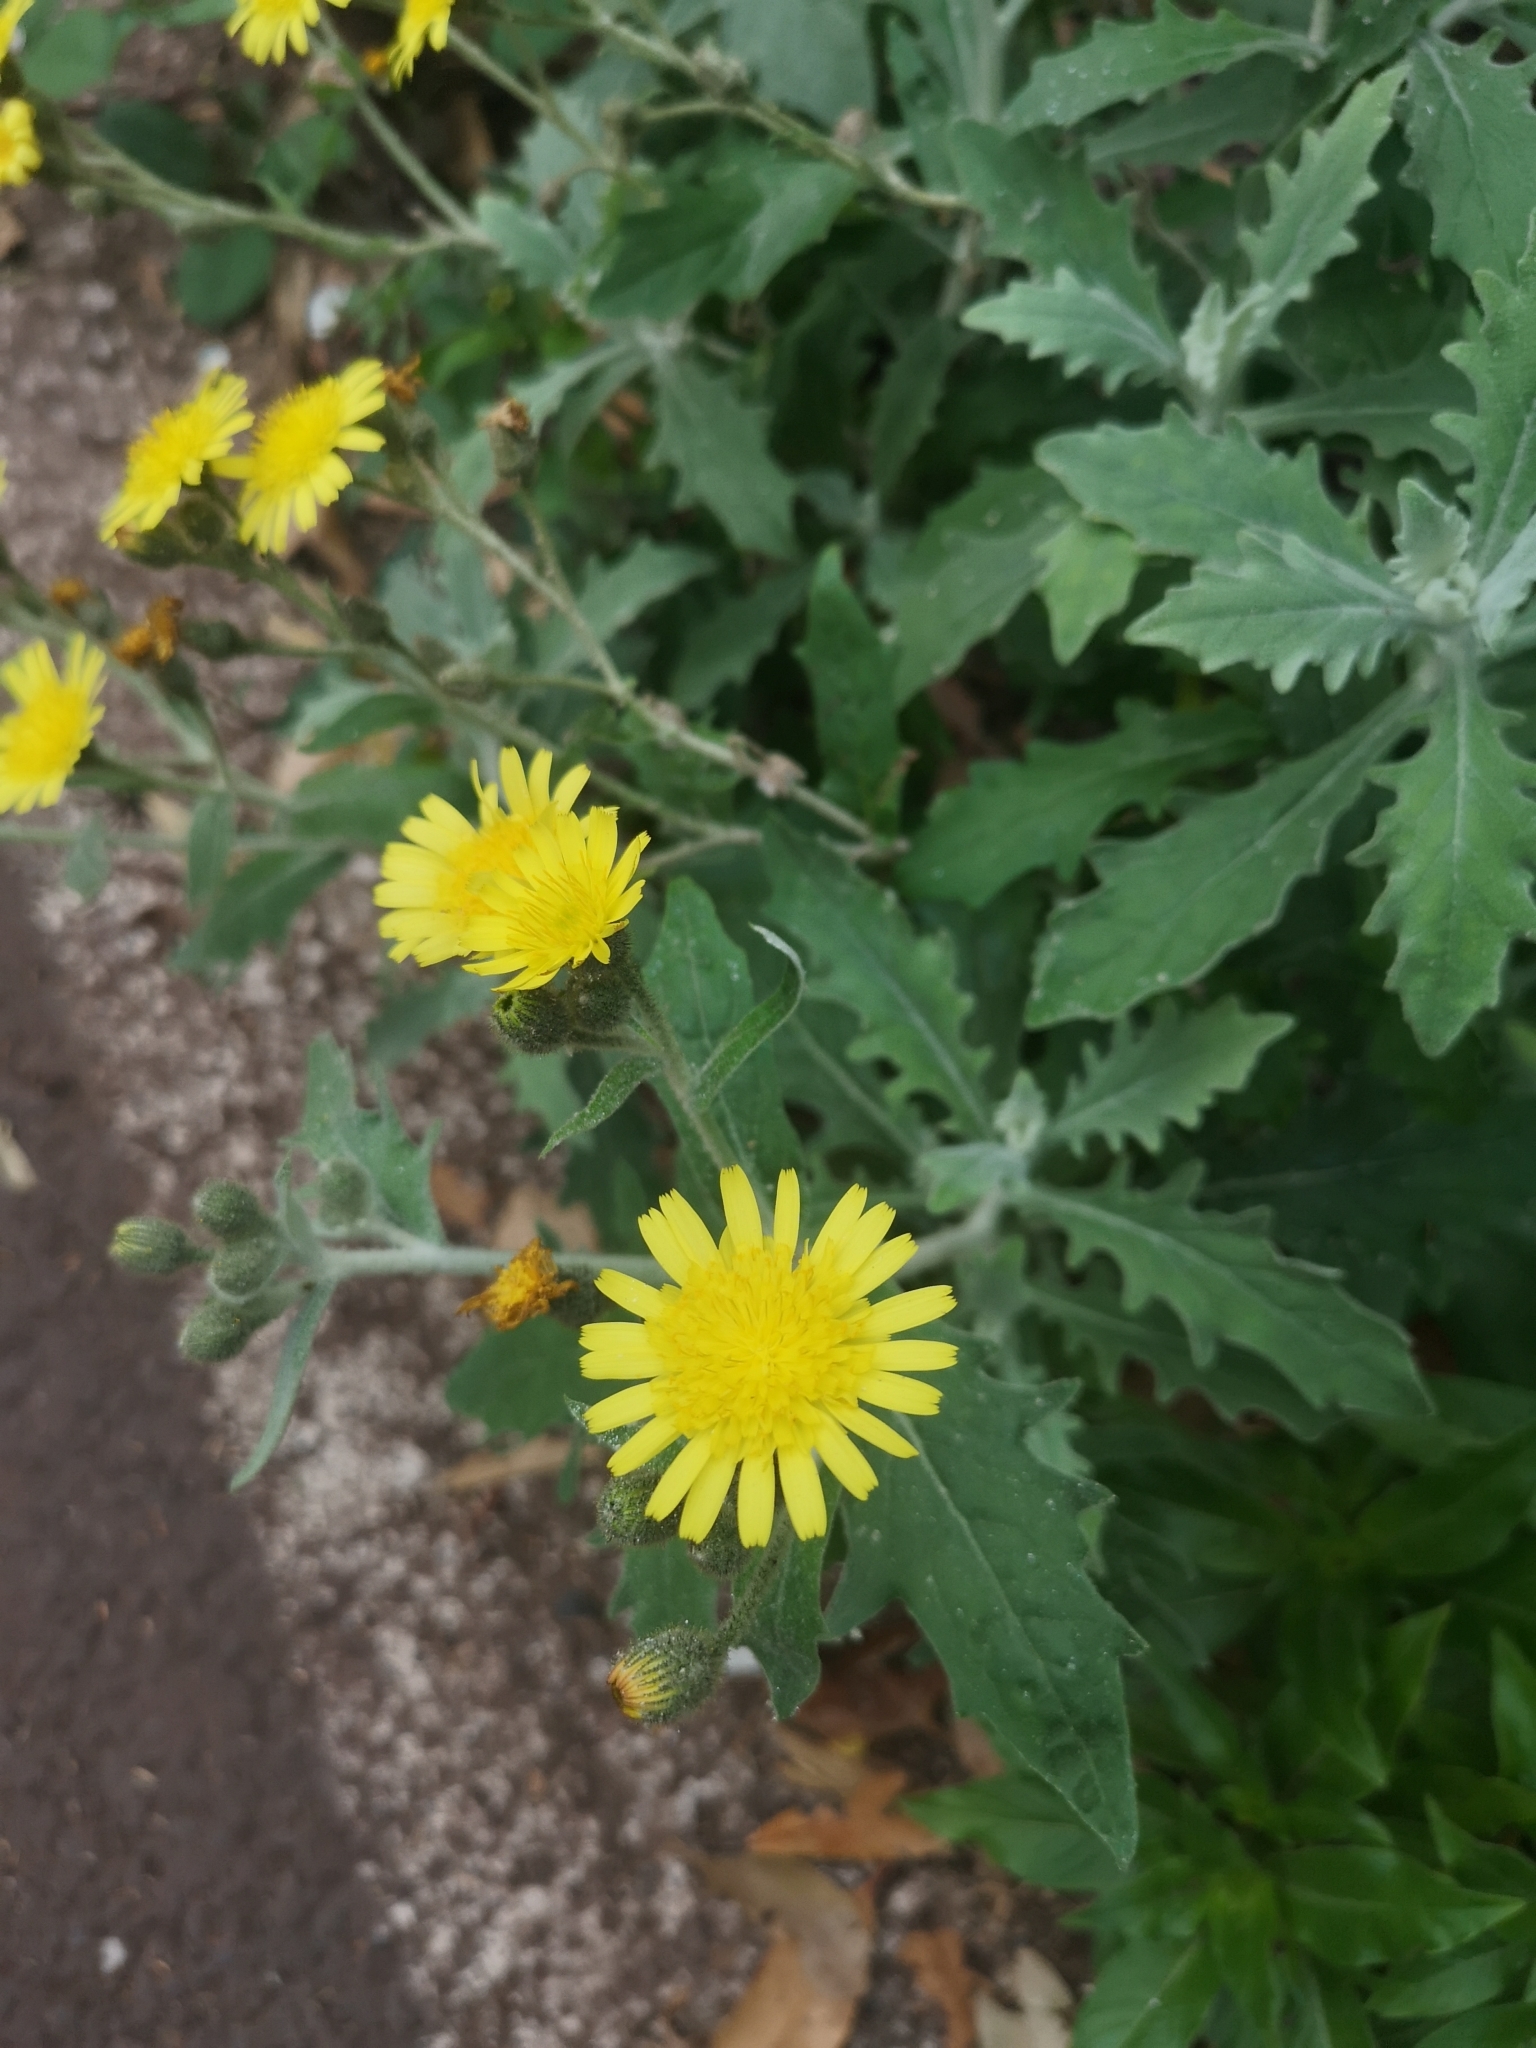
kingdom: Plantae
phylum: Tracheophyta
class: Magnoliopsida
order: Asterales
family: Asteraceae
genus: Andryala
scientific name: Andryala pinnatifida
